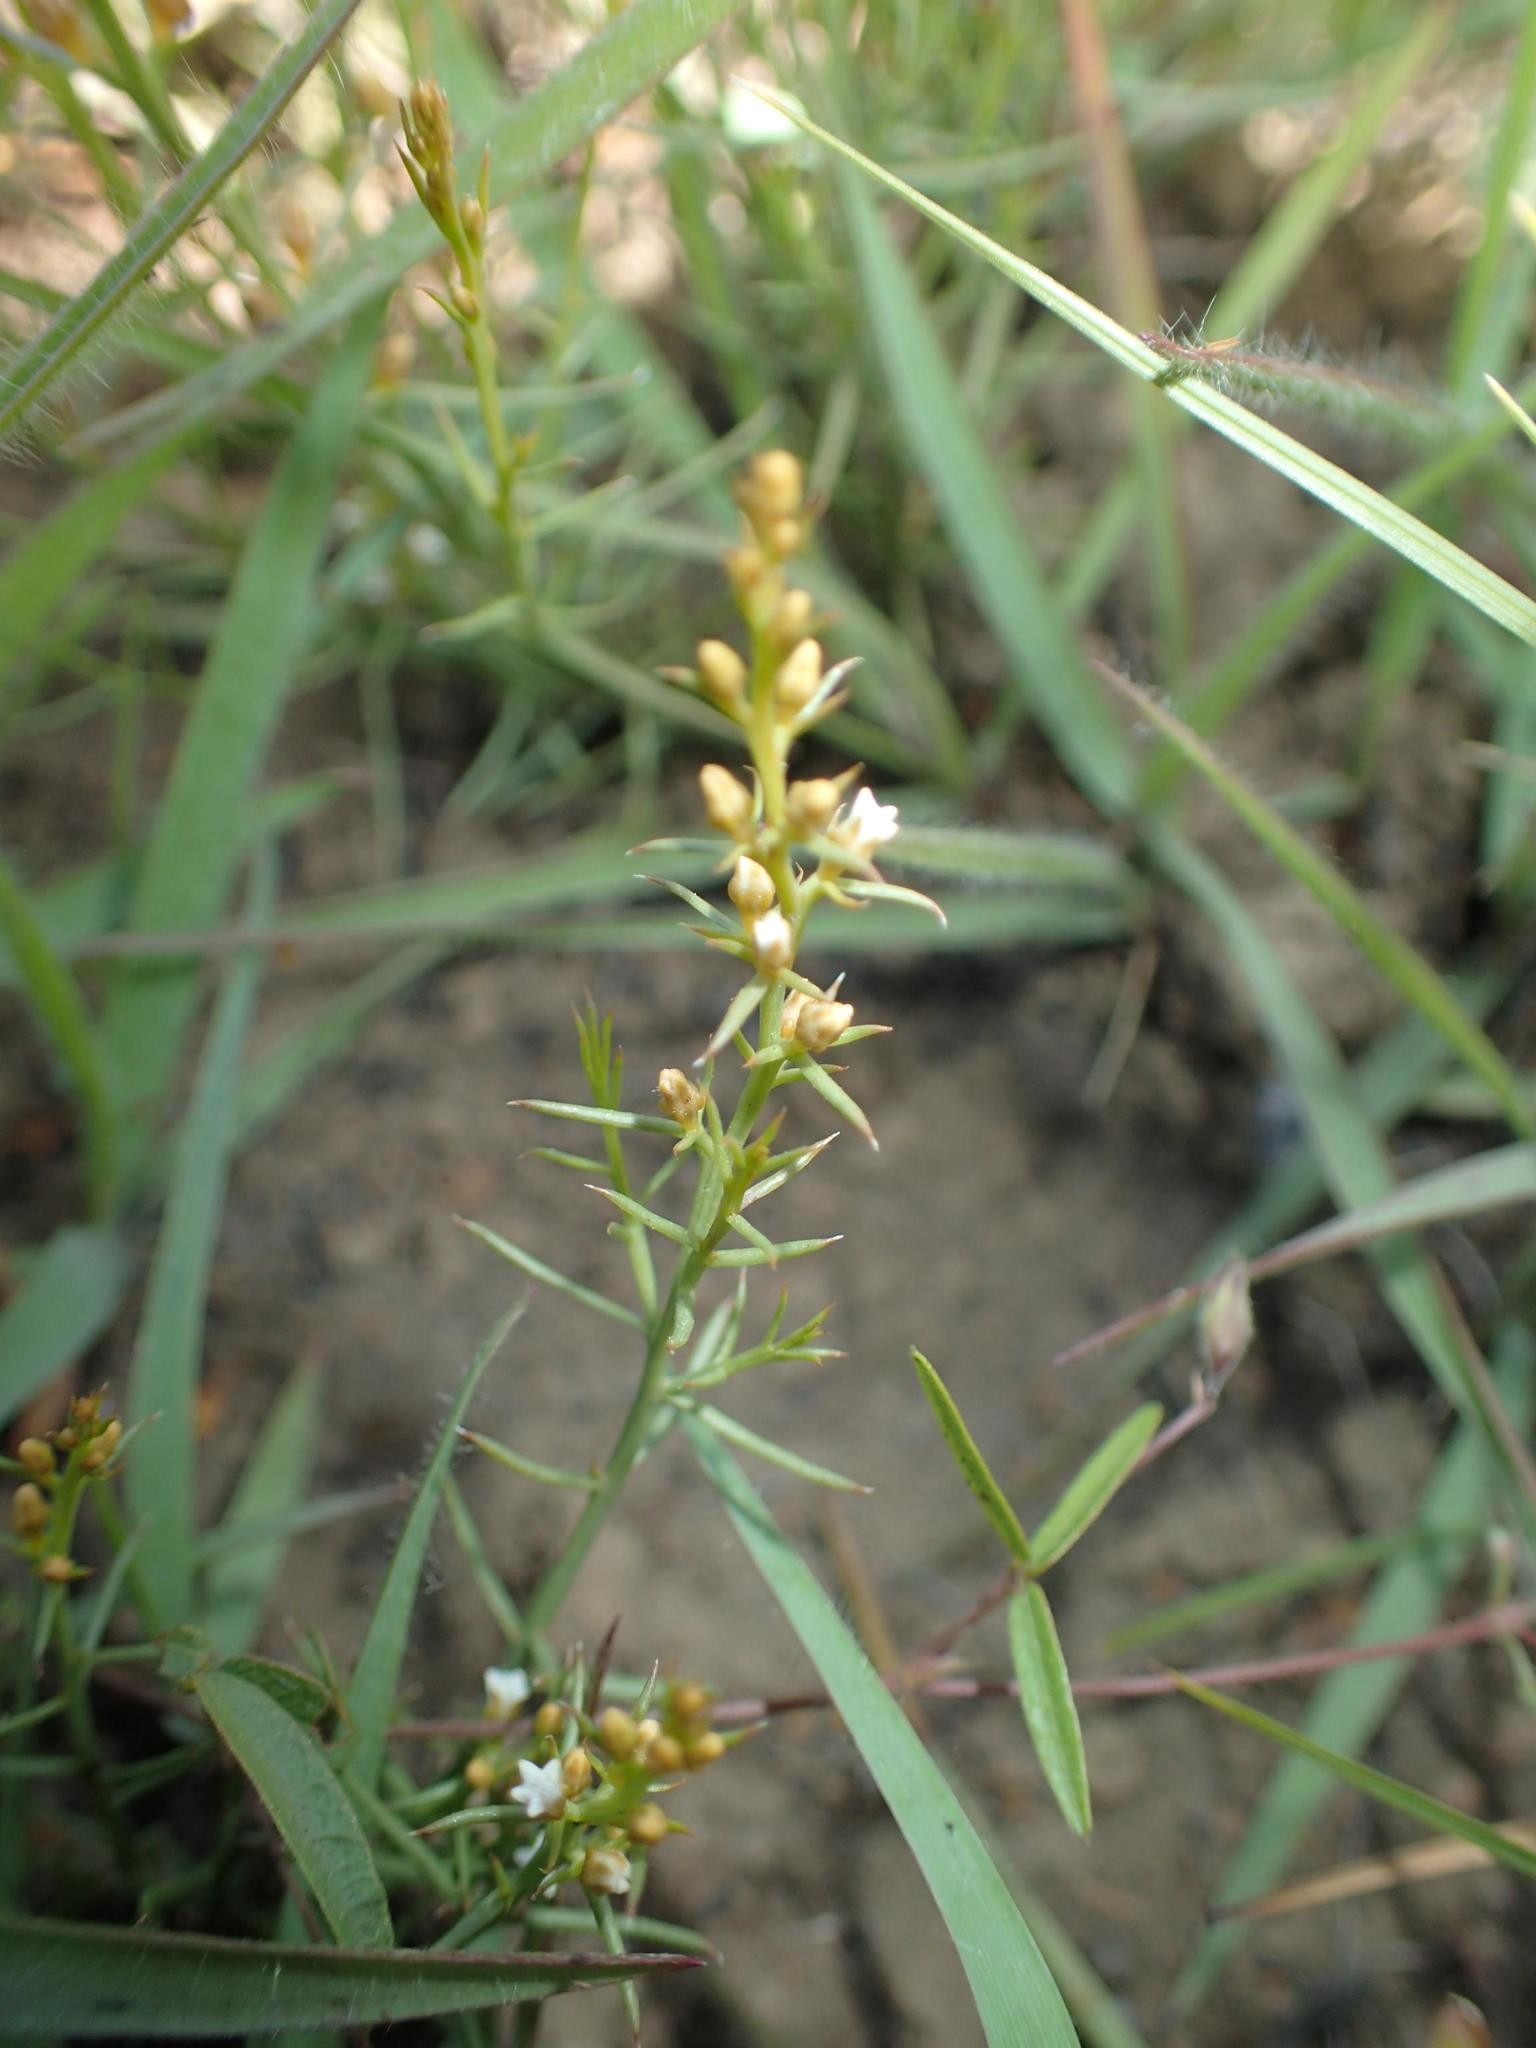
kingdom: Plantae
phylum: Tracheophyta
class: Magnoliopsida
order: Santalales
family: Thesiaceae
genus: Thesium
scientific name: Thesium
